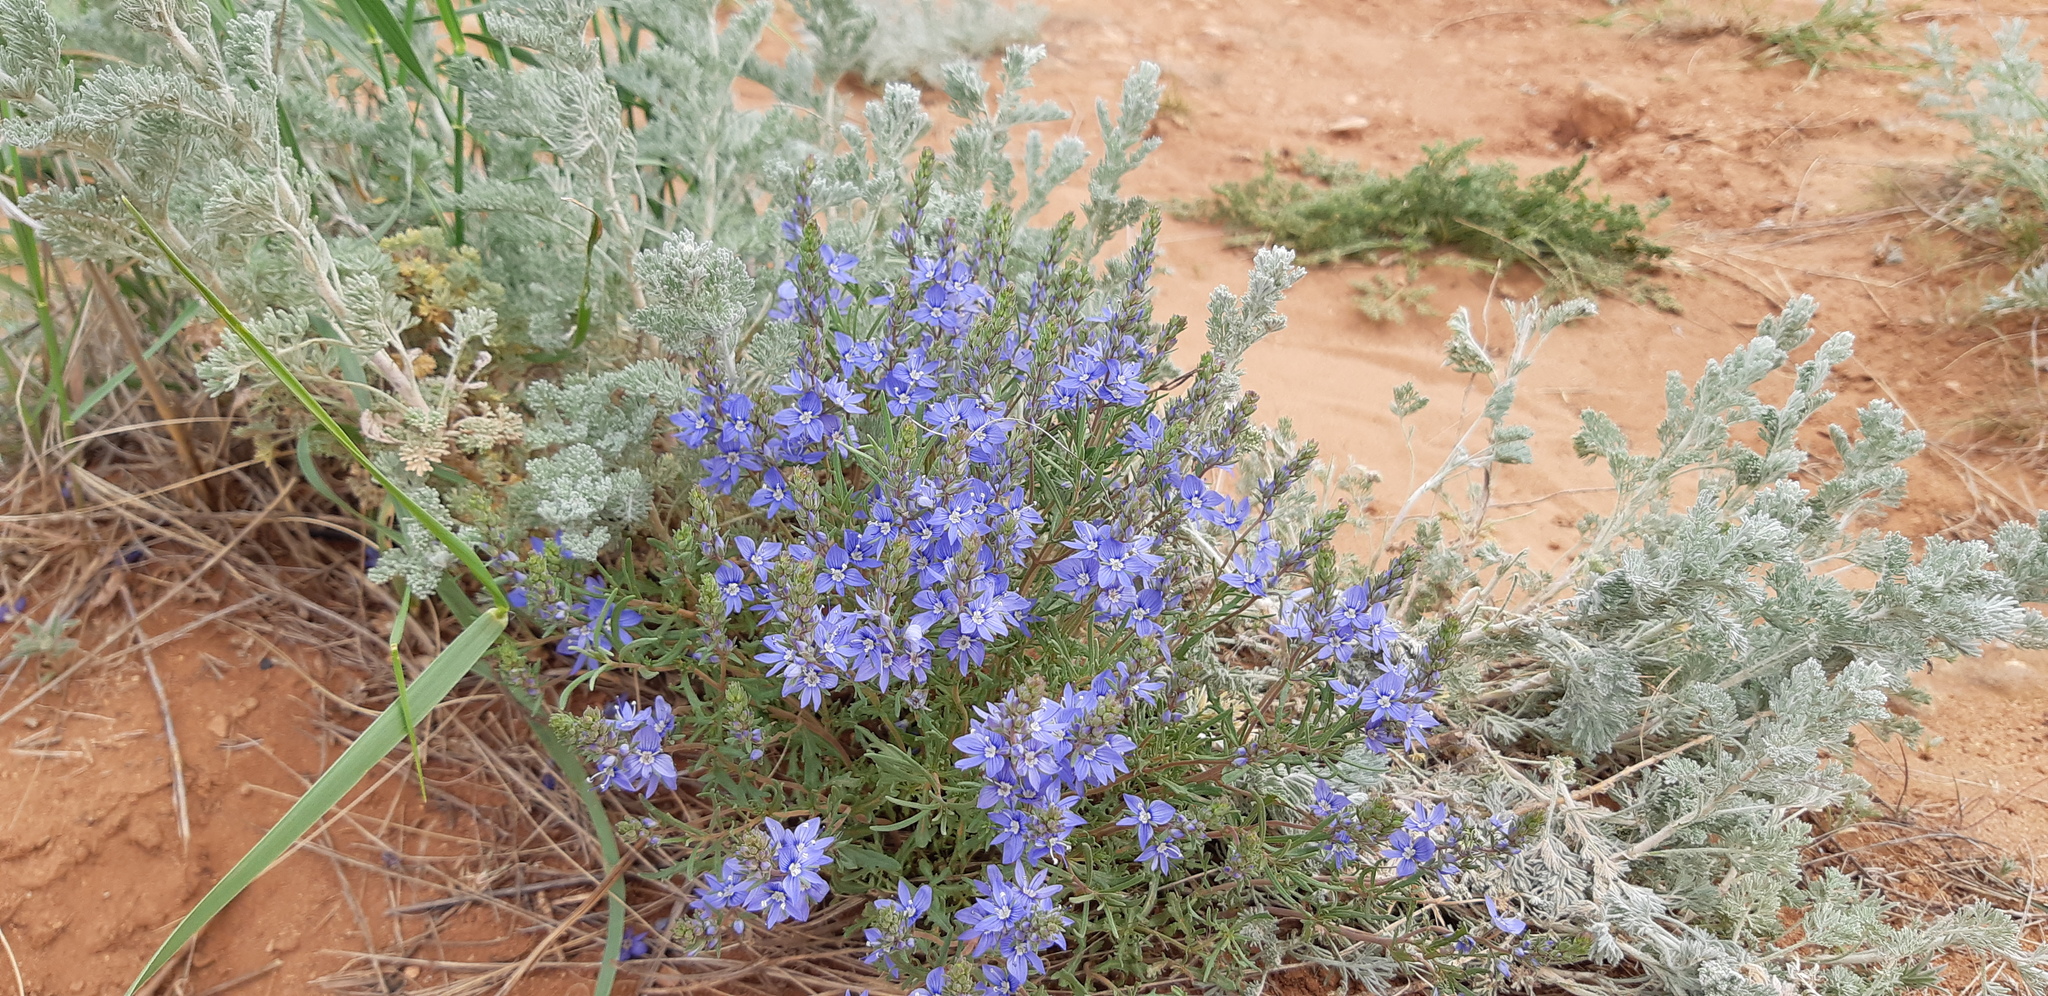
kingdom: Plantae
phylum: Tracheophyta
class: Magnoliopsida
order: Lamiales
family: Plantaginaceae
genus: Veronica
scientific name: Veronica multifida
